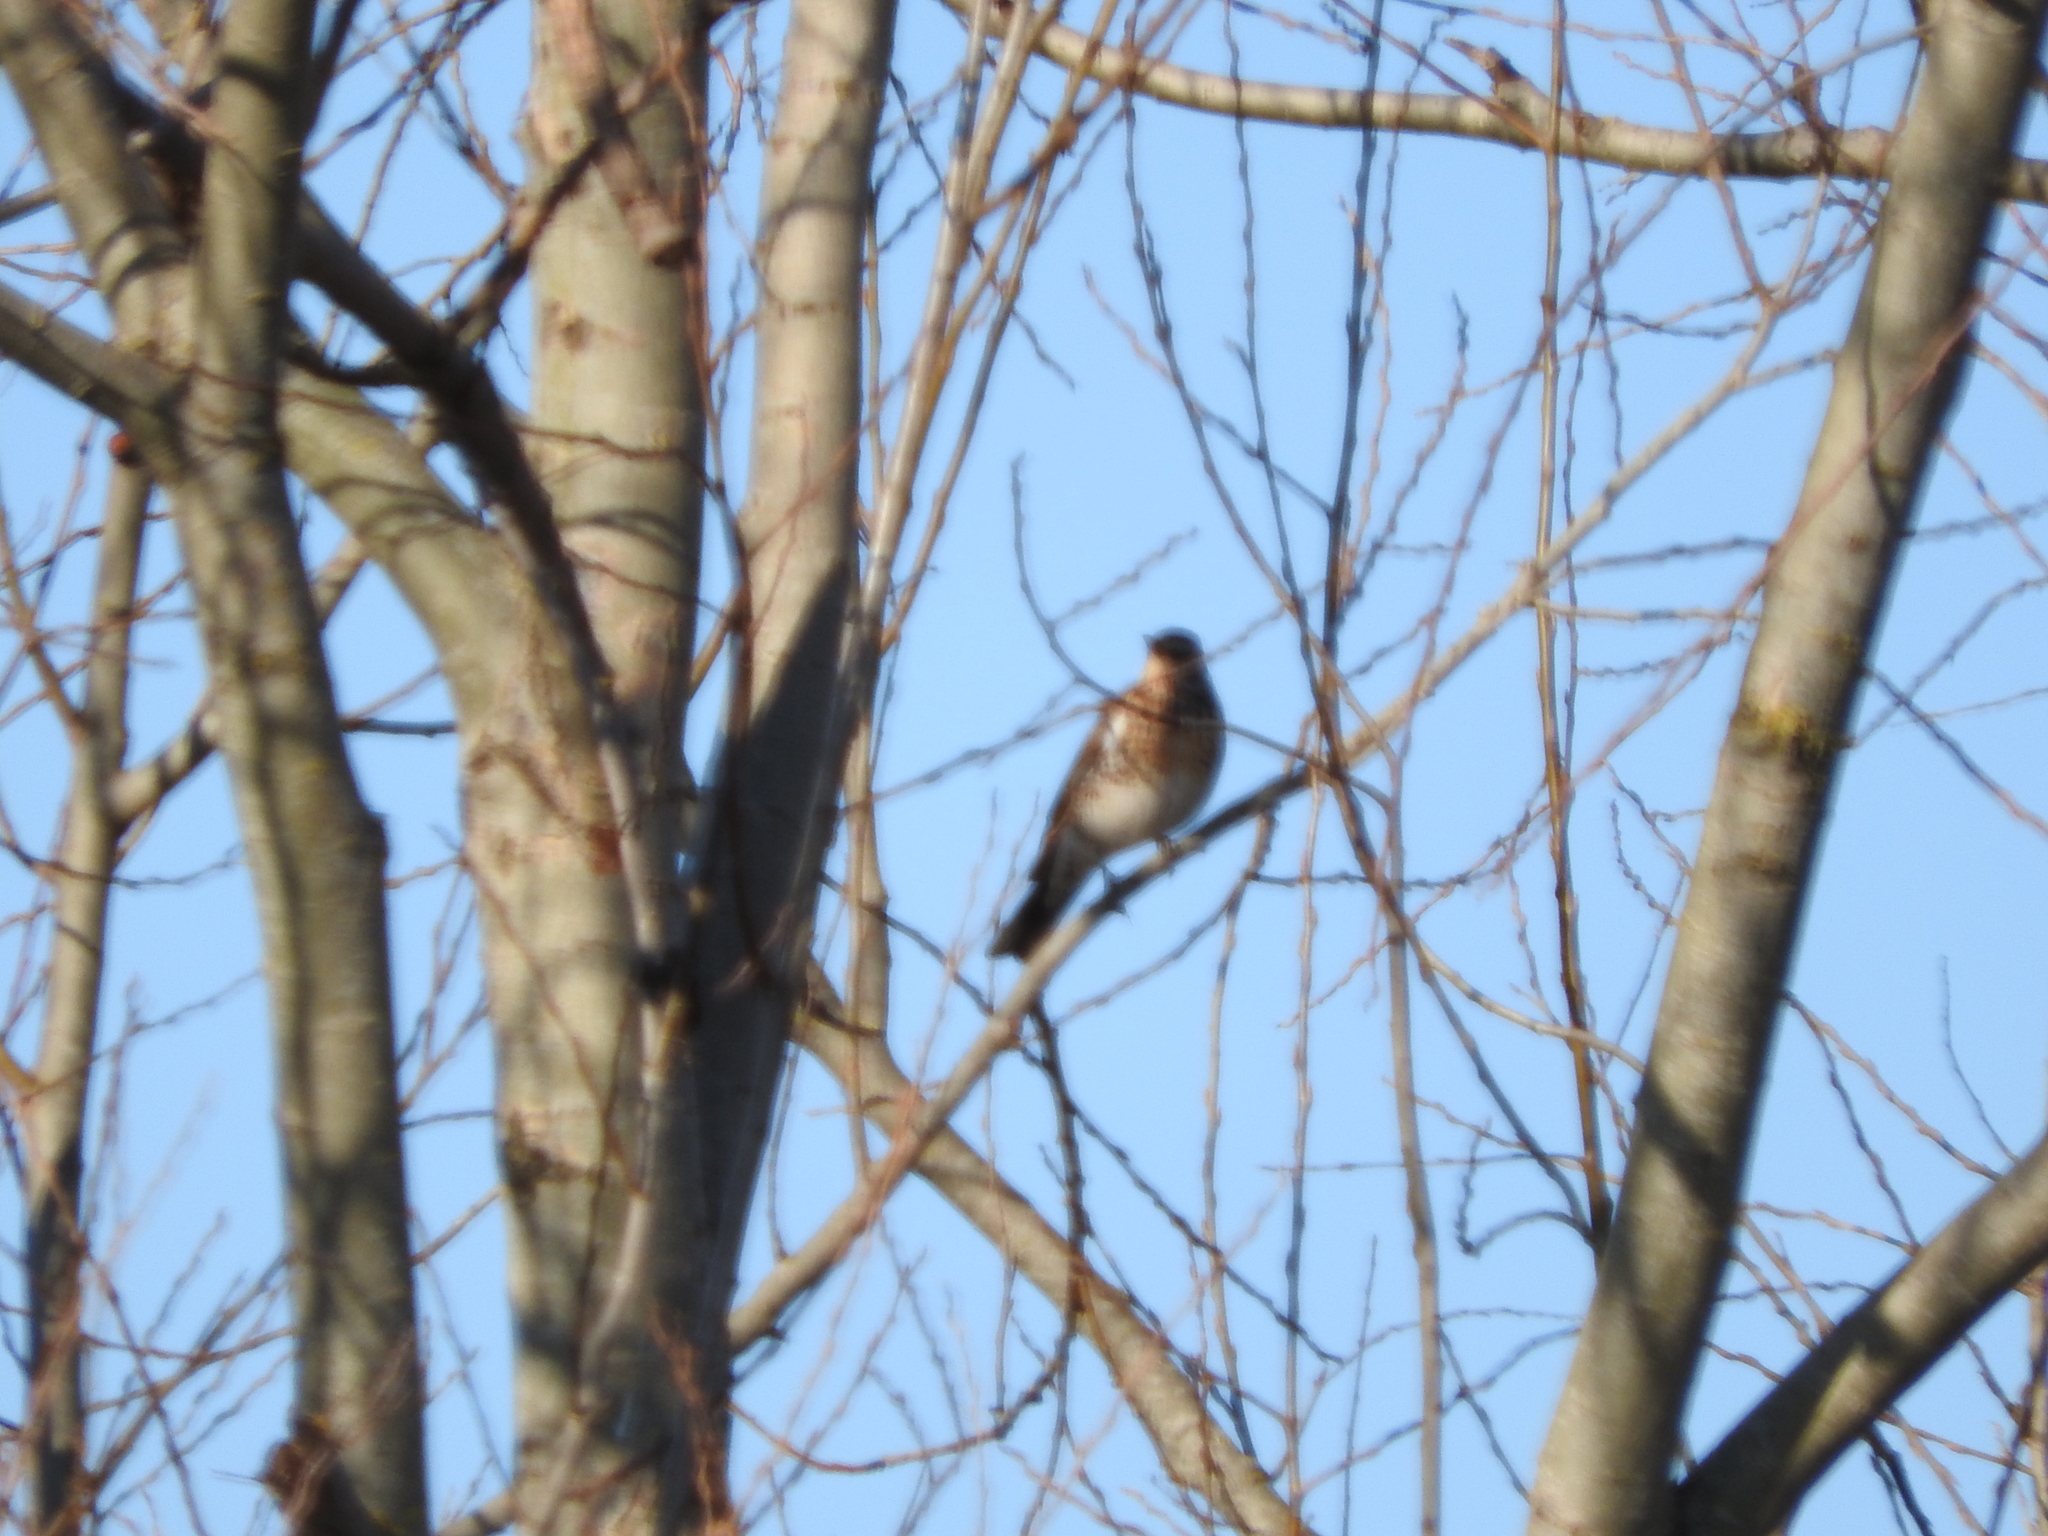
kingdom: Animalia
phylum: Chordata
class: Aves
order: Passeriformes
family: Turdidae
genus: Turdus
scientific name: Turdus pilaris
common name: Fieldfare
